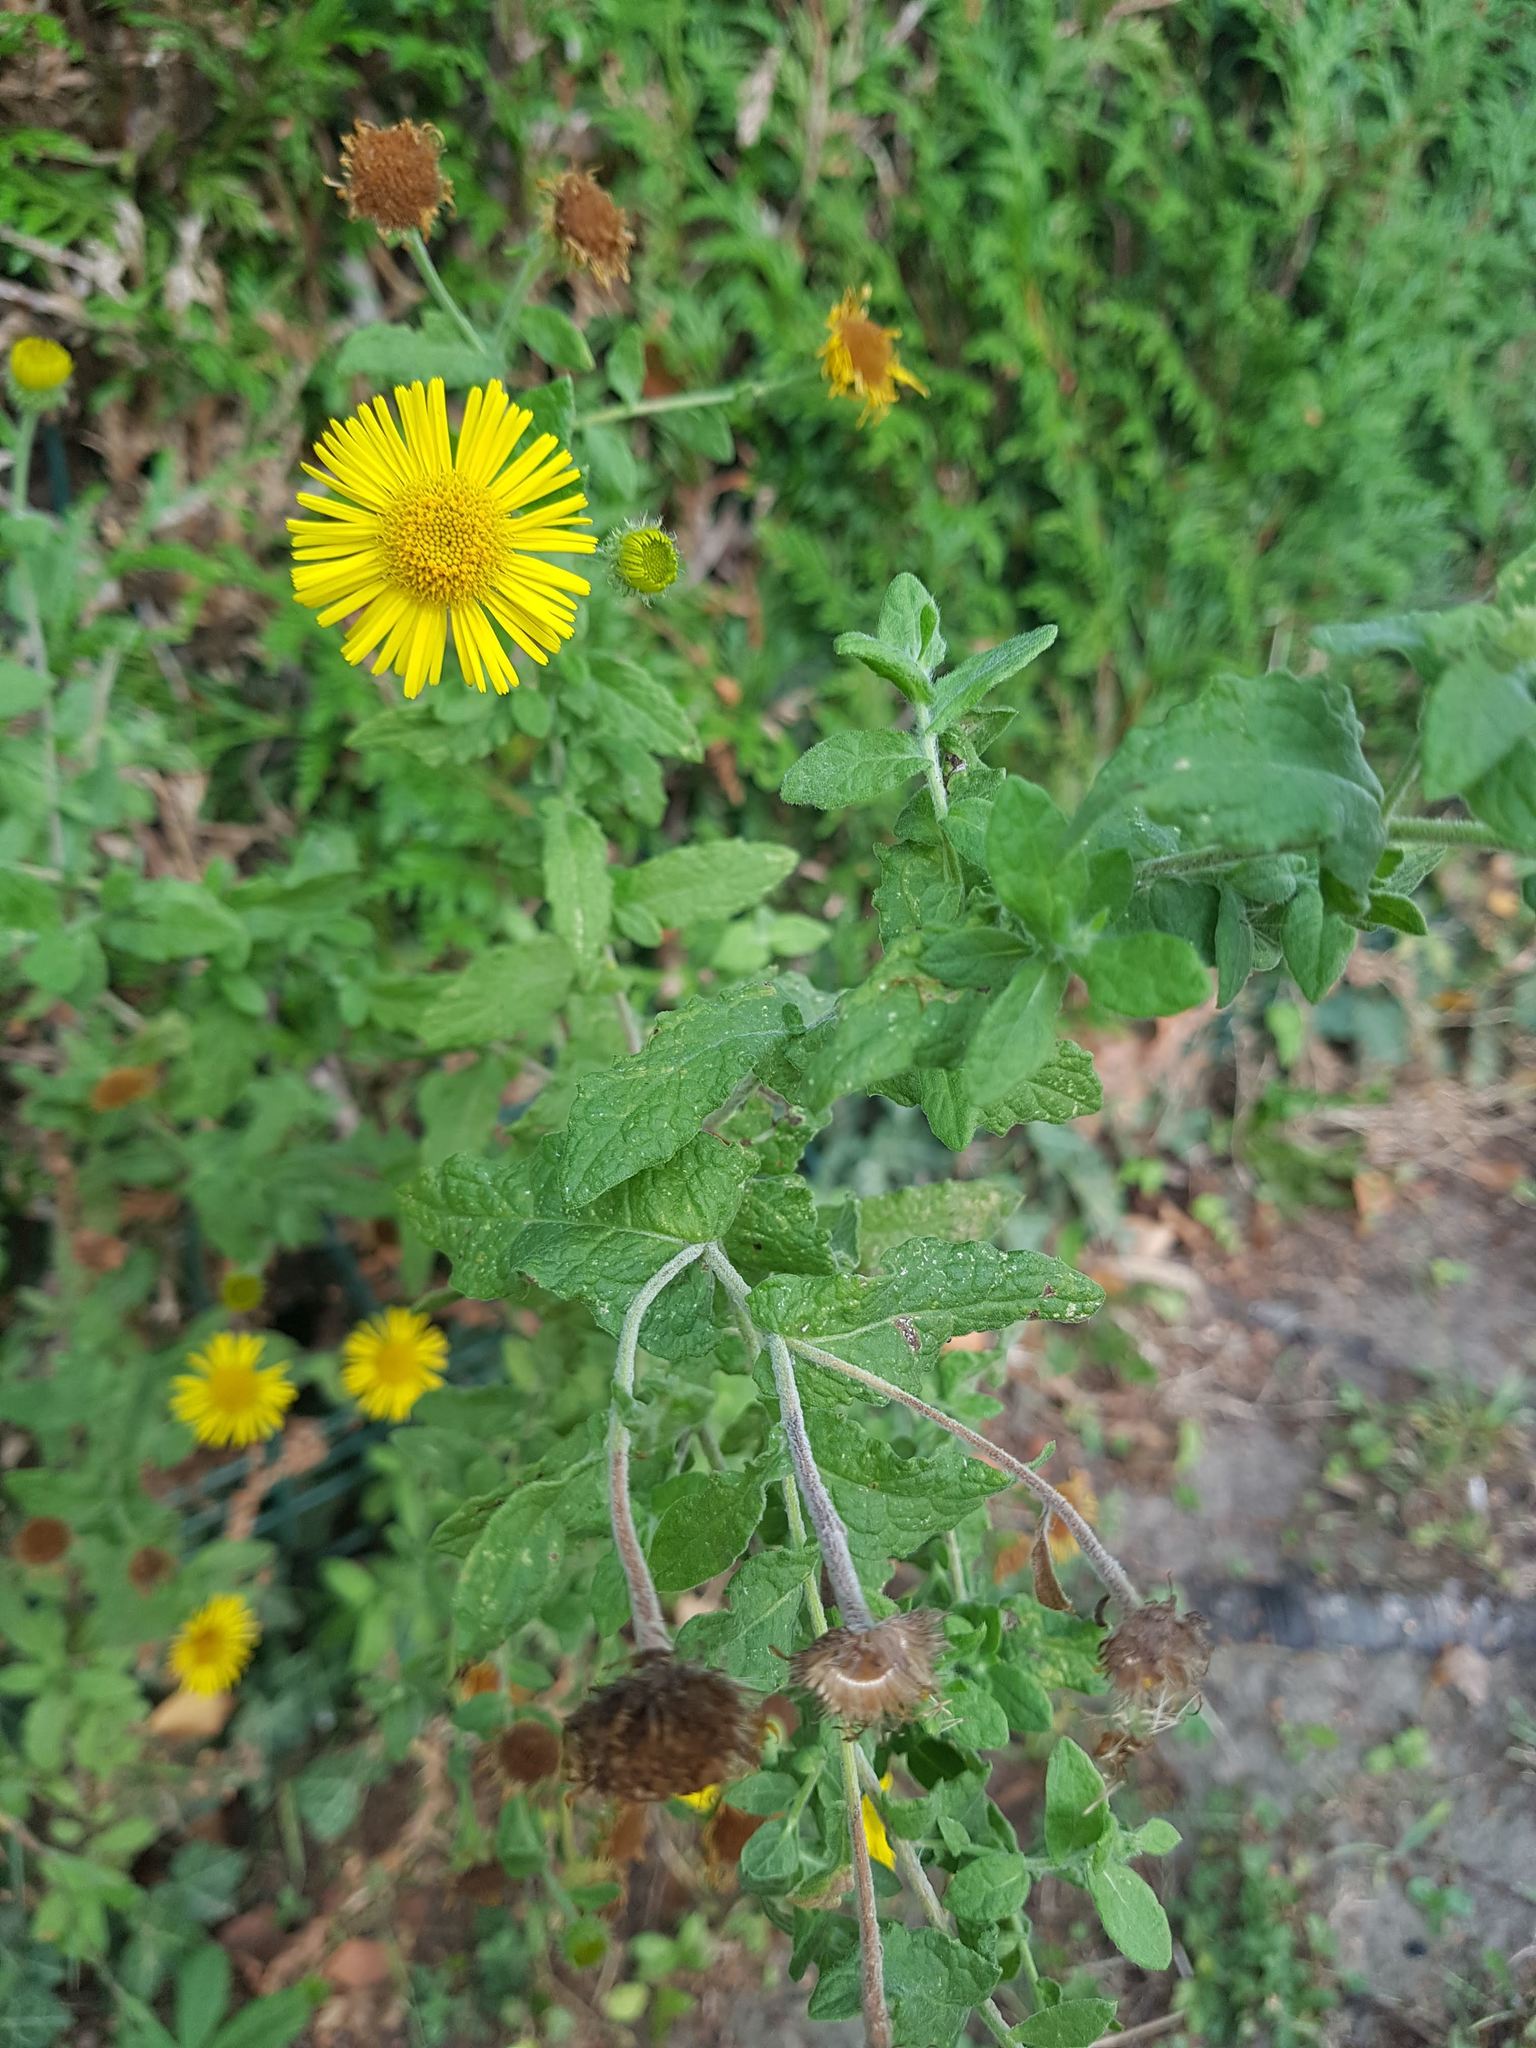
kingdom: Plantae
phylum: Tracheophyta
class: Magnoliopsida
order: Asterales
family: Asteraceae
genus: Pulicaria
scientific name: Pulicaria dysenterica
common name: Common fleabane
